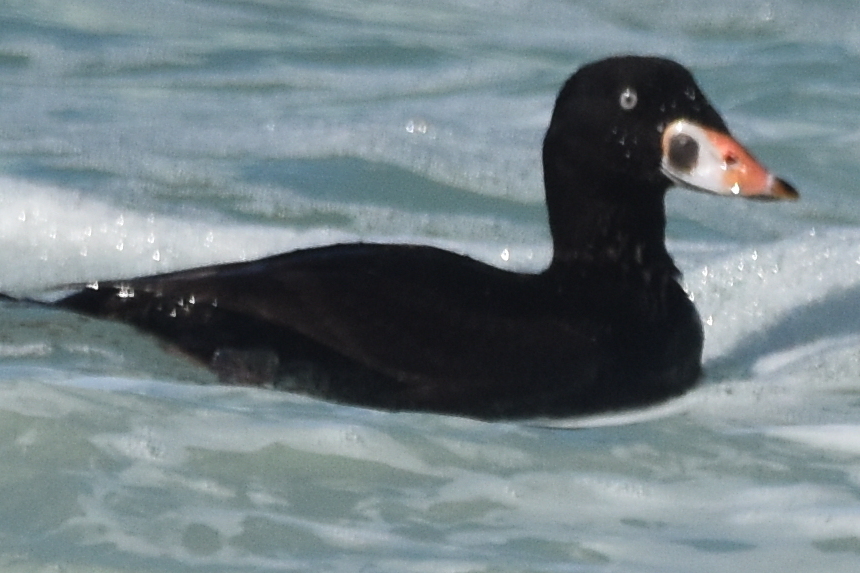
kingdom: Animalia
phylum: Chordata
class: Aves
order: Anseriformes
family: Anatidae
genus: Melanitta
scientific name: Melanitta perspicillata
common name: Surf scoter
